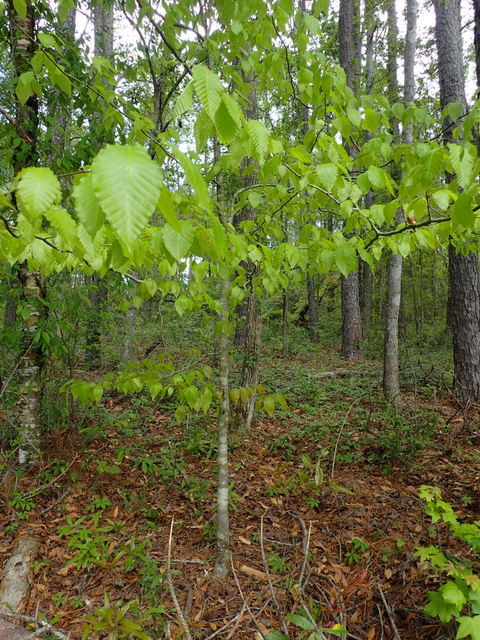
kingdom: Plantae
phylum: Tracheophyta
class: Magnoliopsida
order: Fagales
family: Fagaceae
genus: Fagus
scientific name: Fagus grandifolia
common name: American beech
